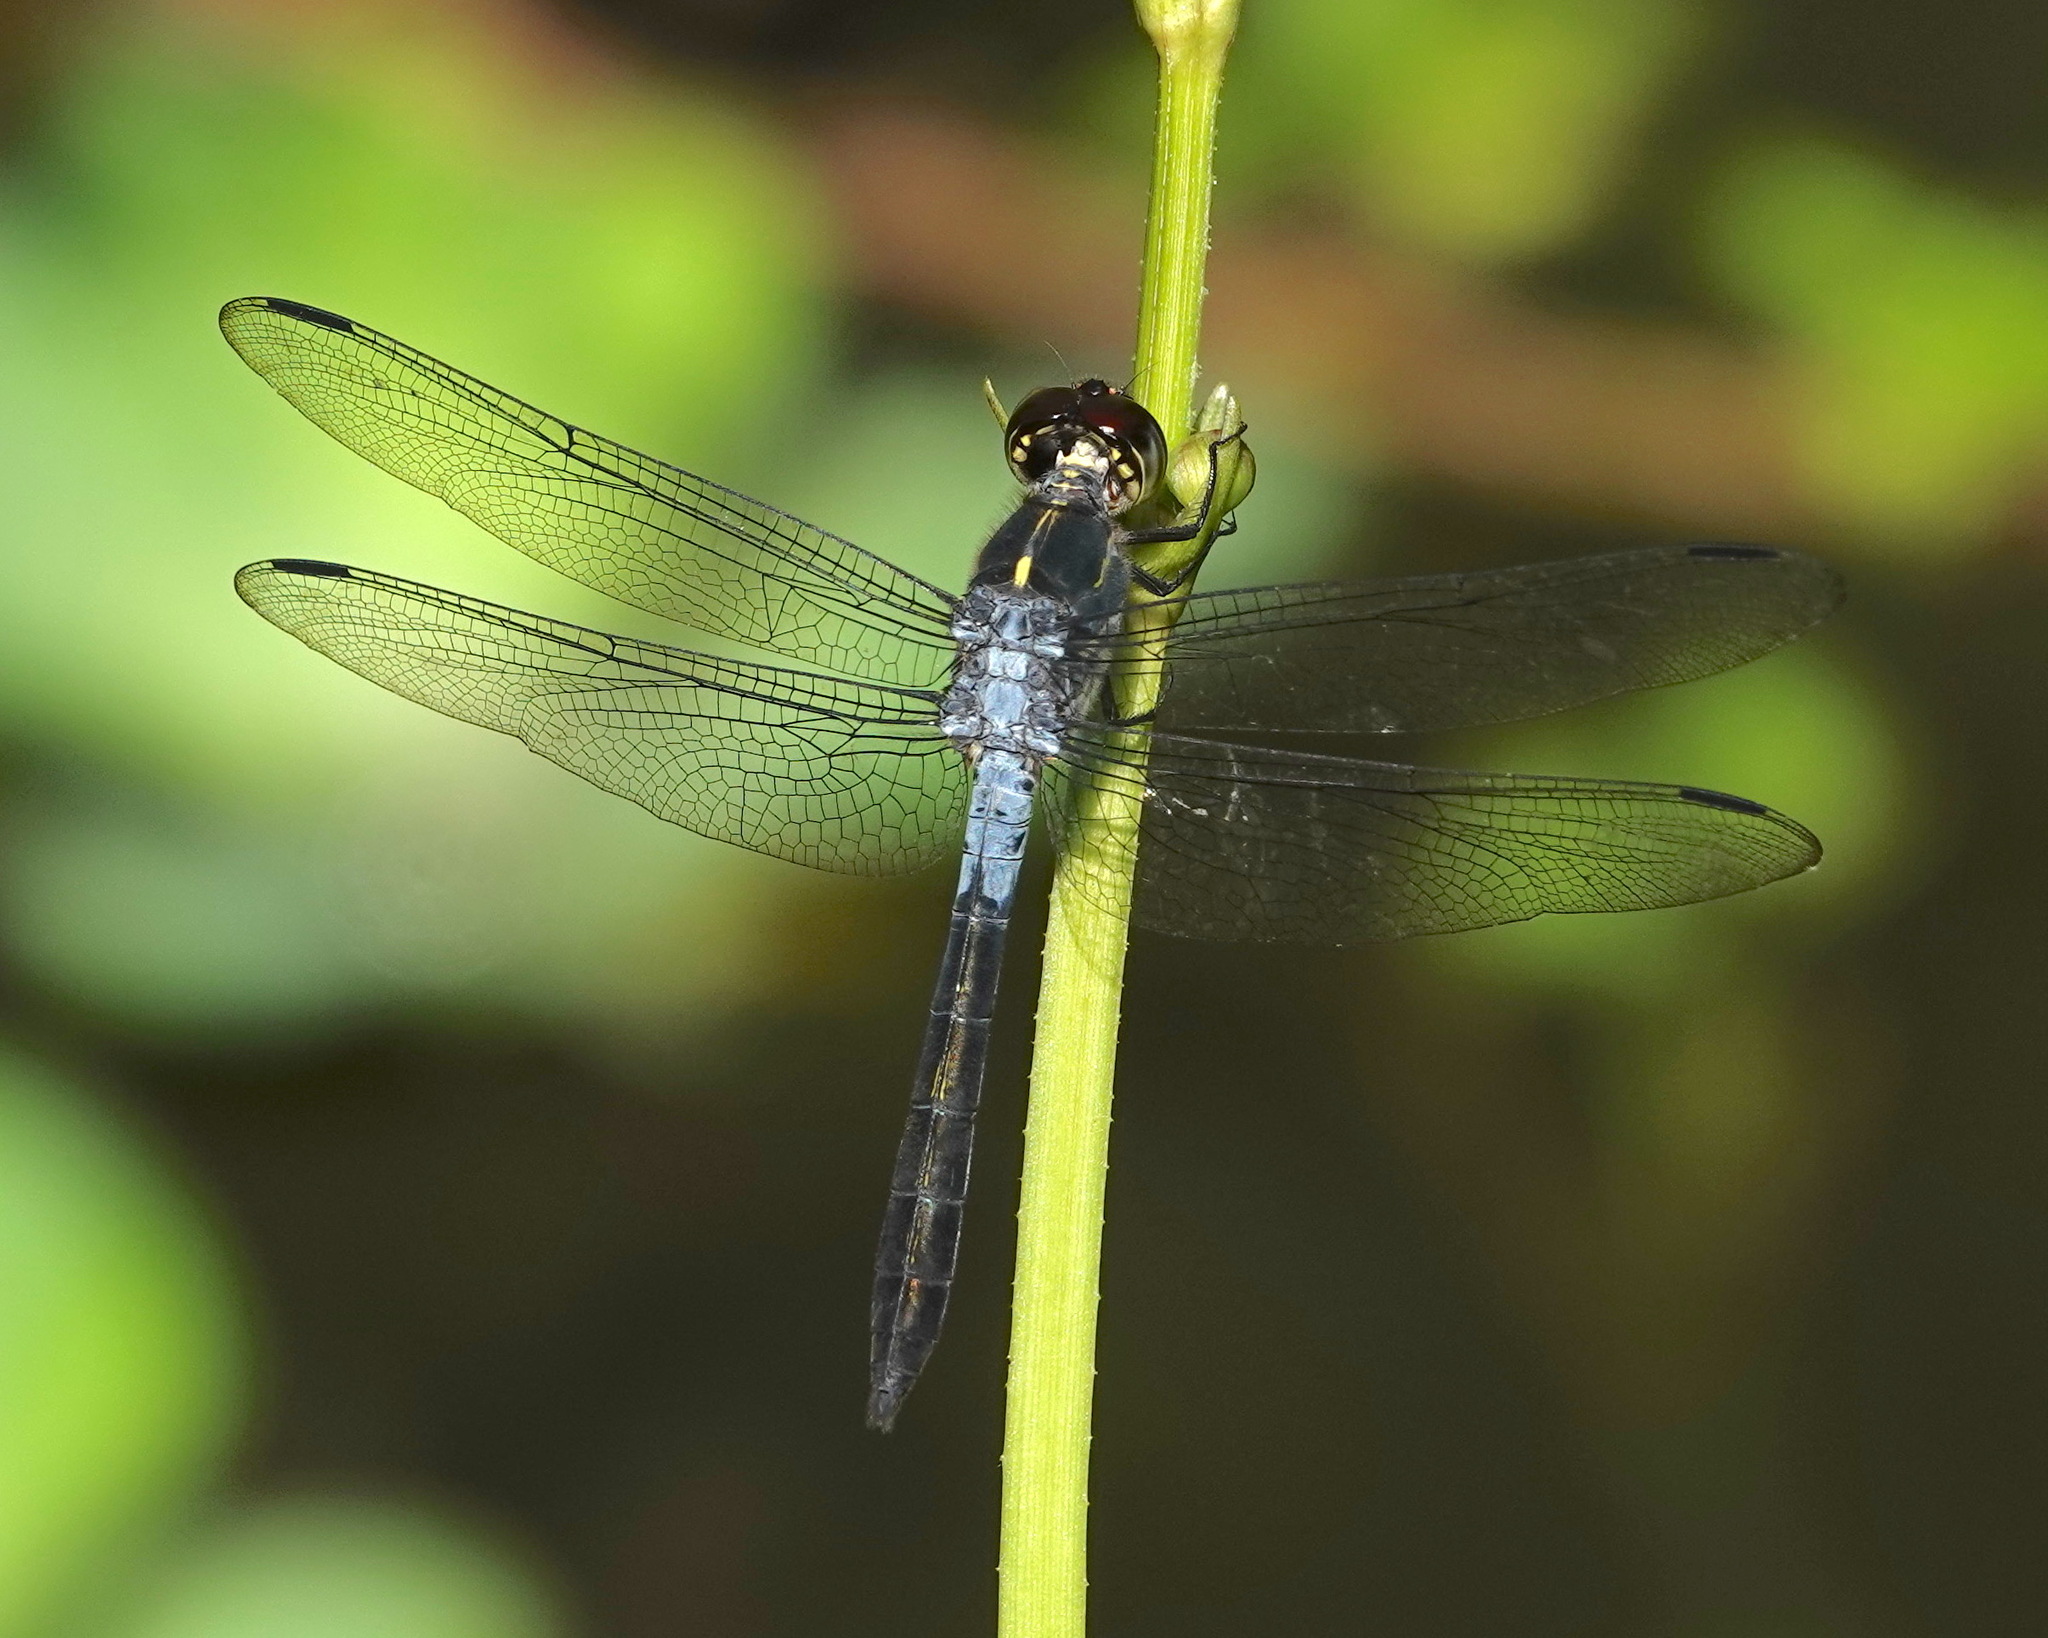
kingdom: Animalia
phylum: Arthropoda
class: Insecta
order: Odonata
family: Libellulidae
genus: Cratilla
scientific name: Cratilla lineata
